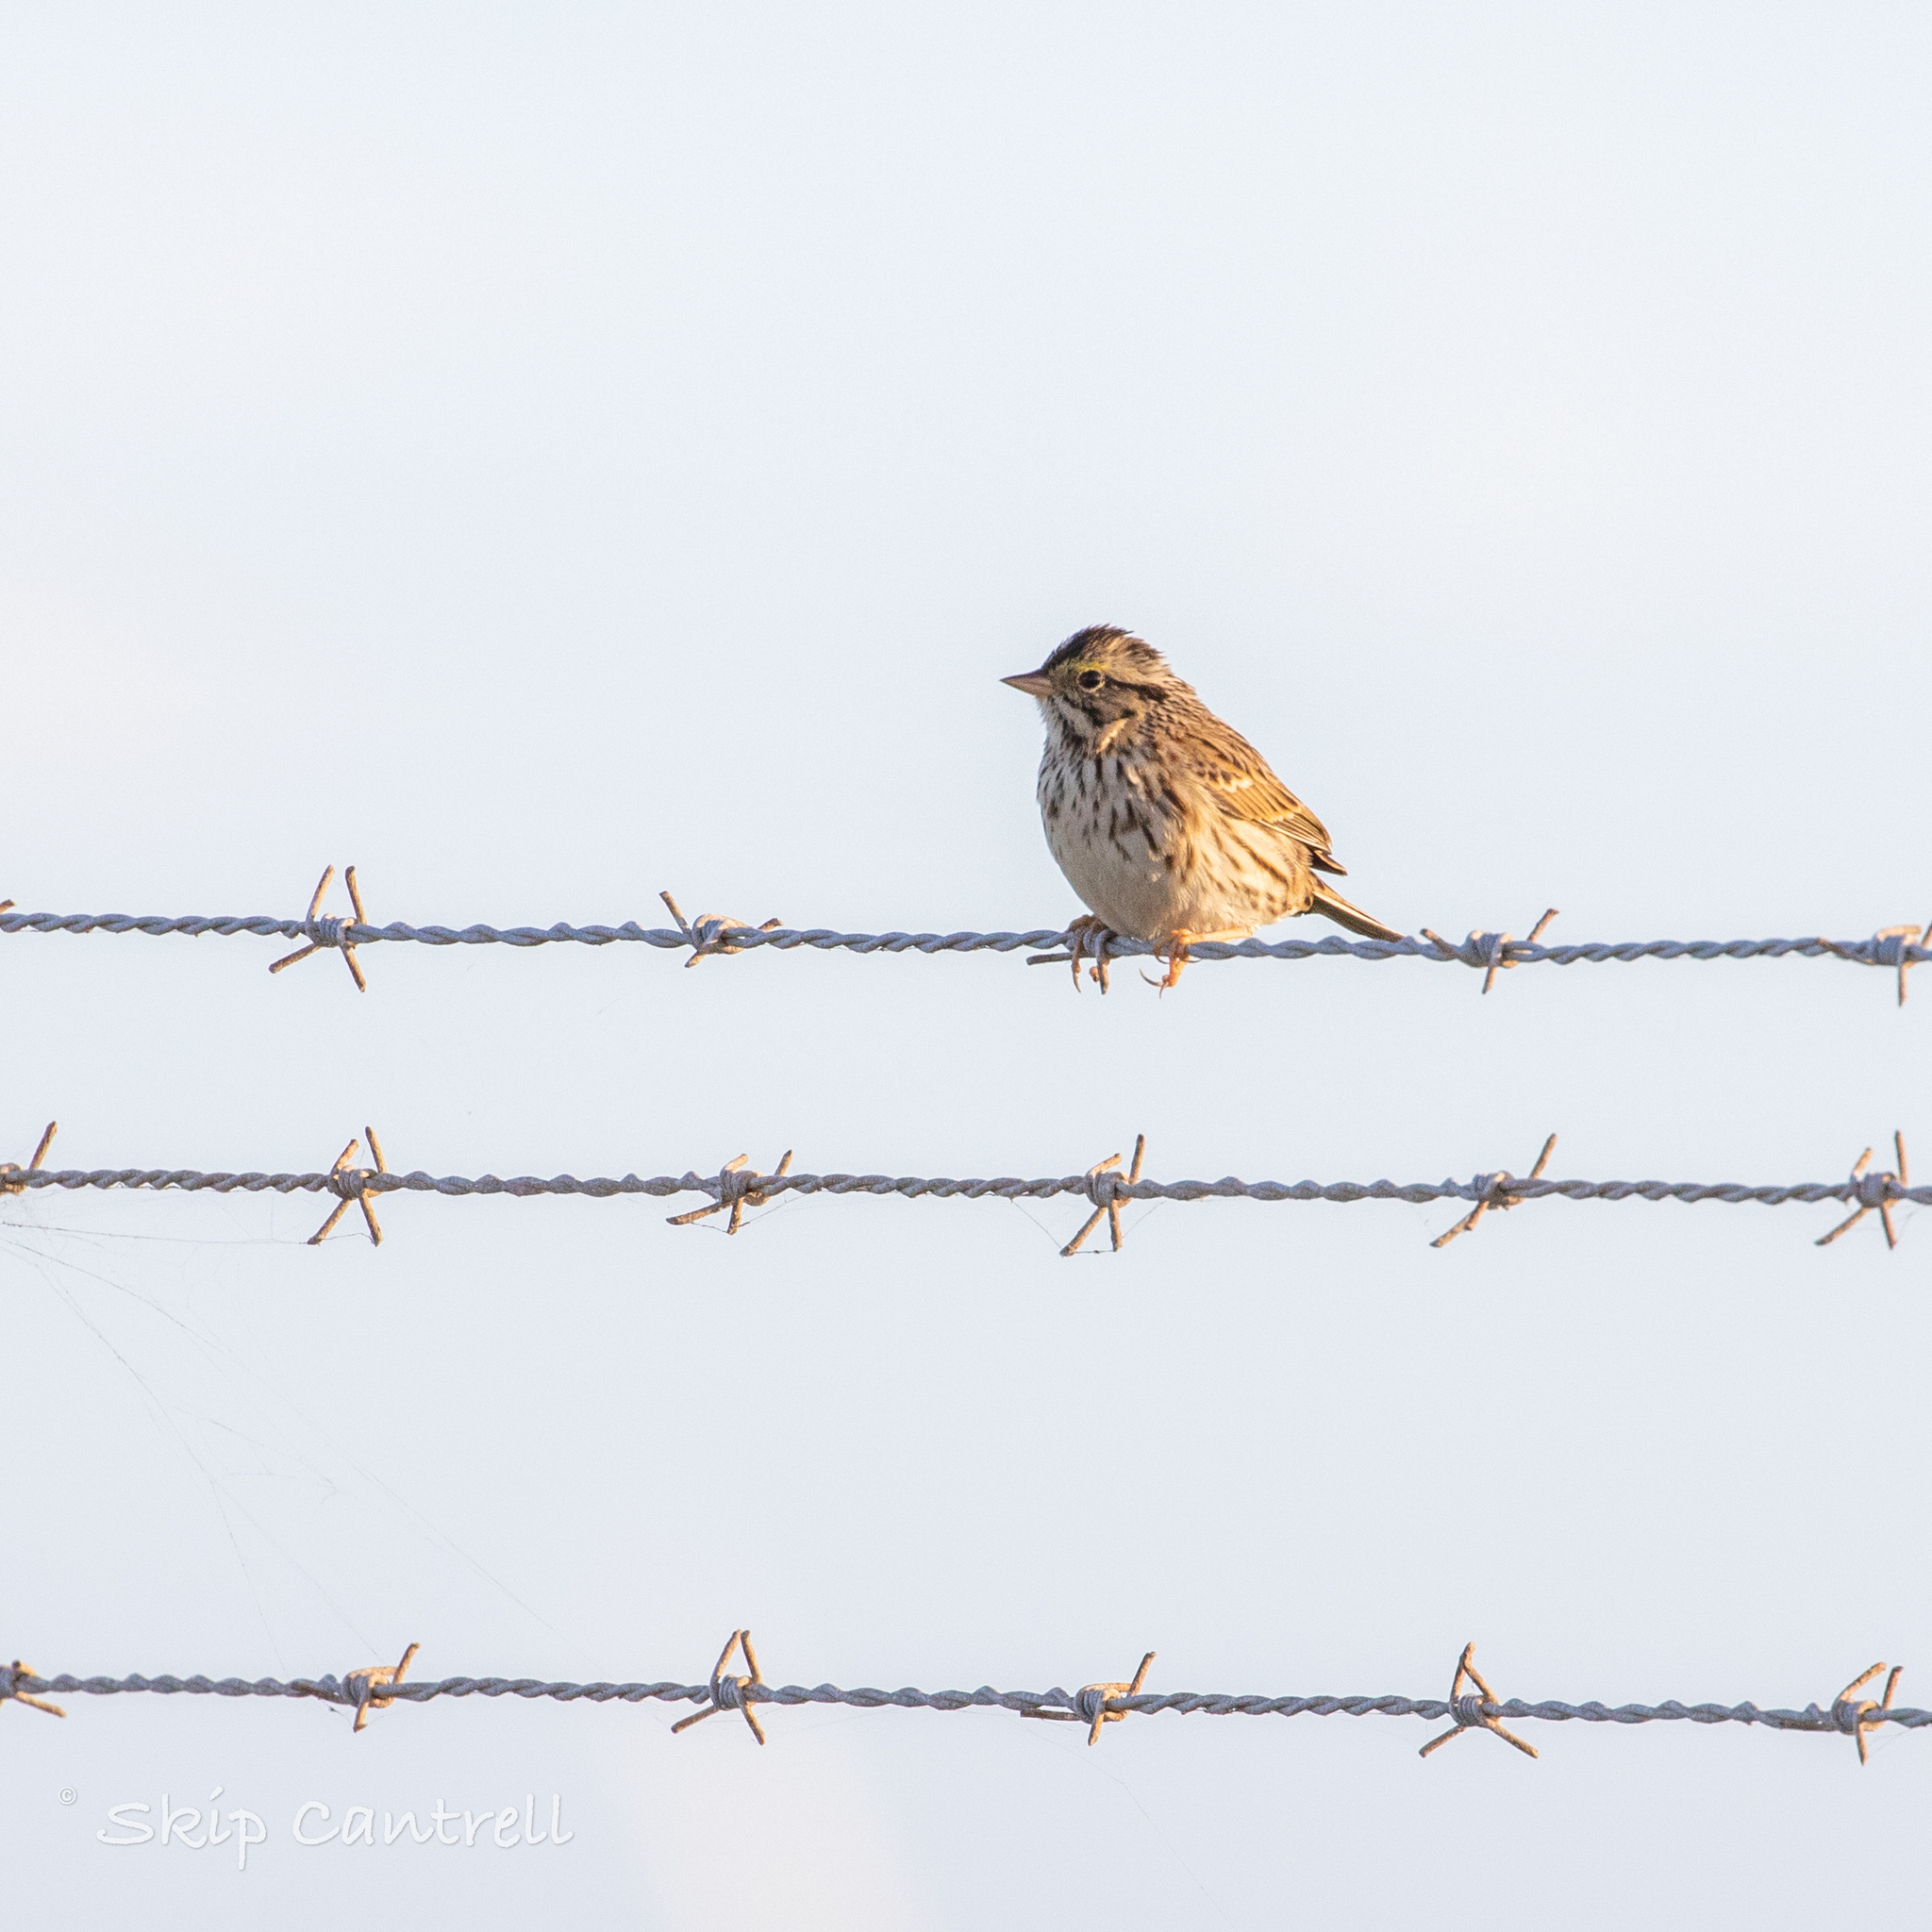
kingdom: Animalia
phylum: Chordata
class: Aves
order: Passeriformes
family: Passerellidae
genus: Passerculus
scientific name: Passerculus sandwichensis
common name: Savannah sparrow
